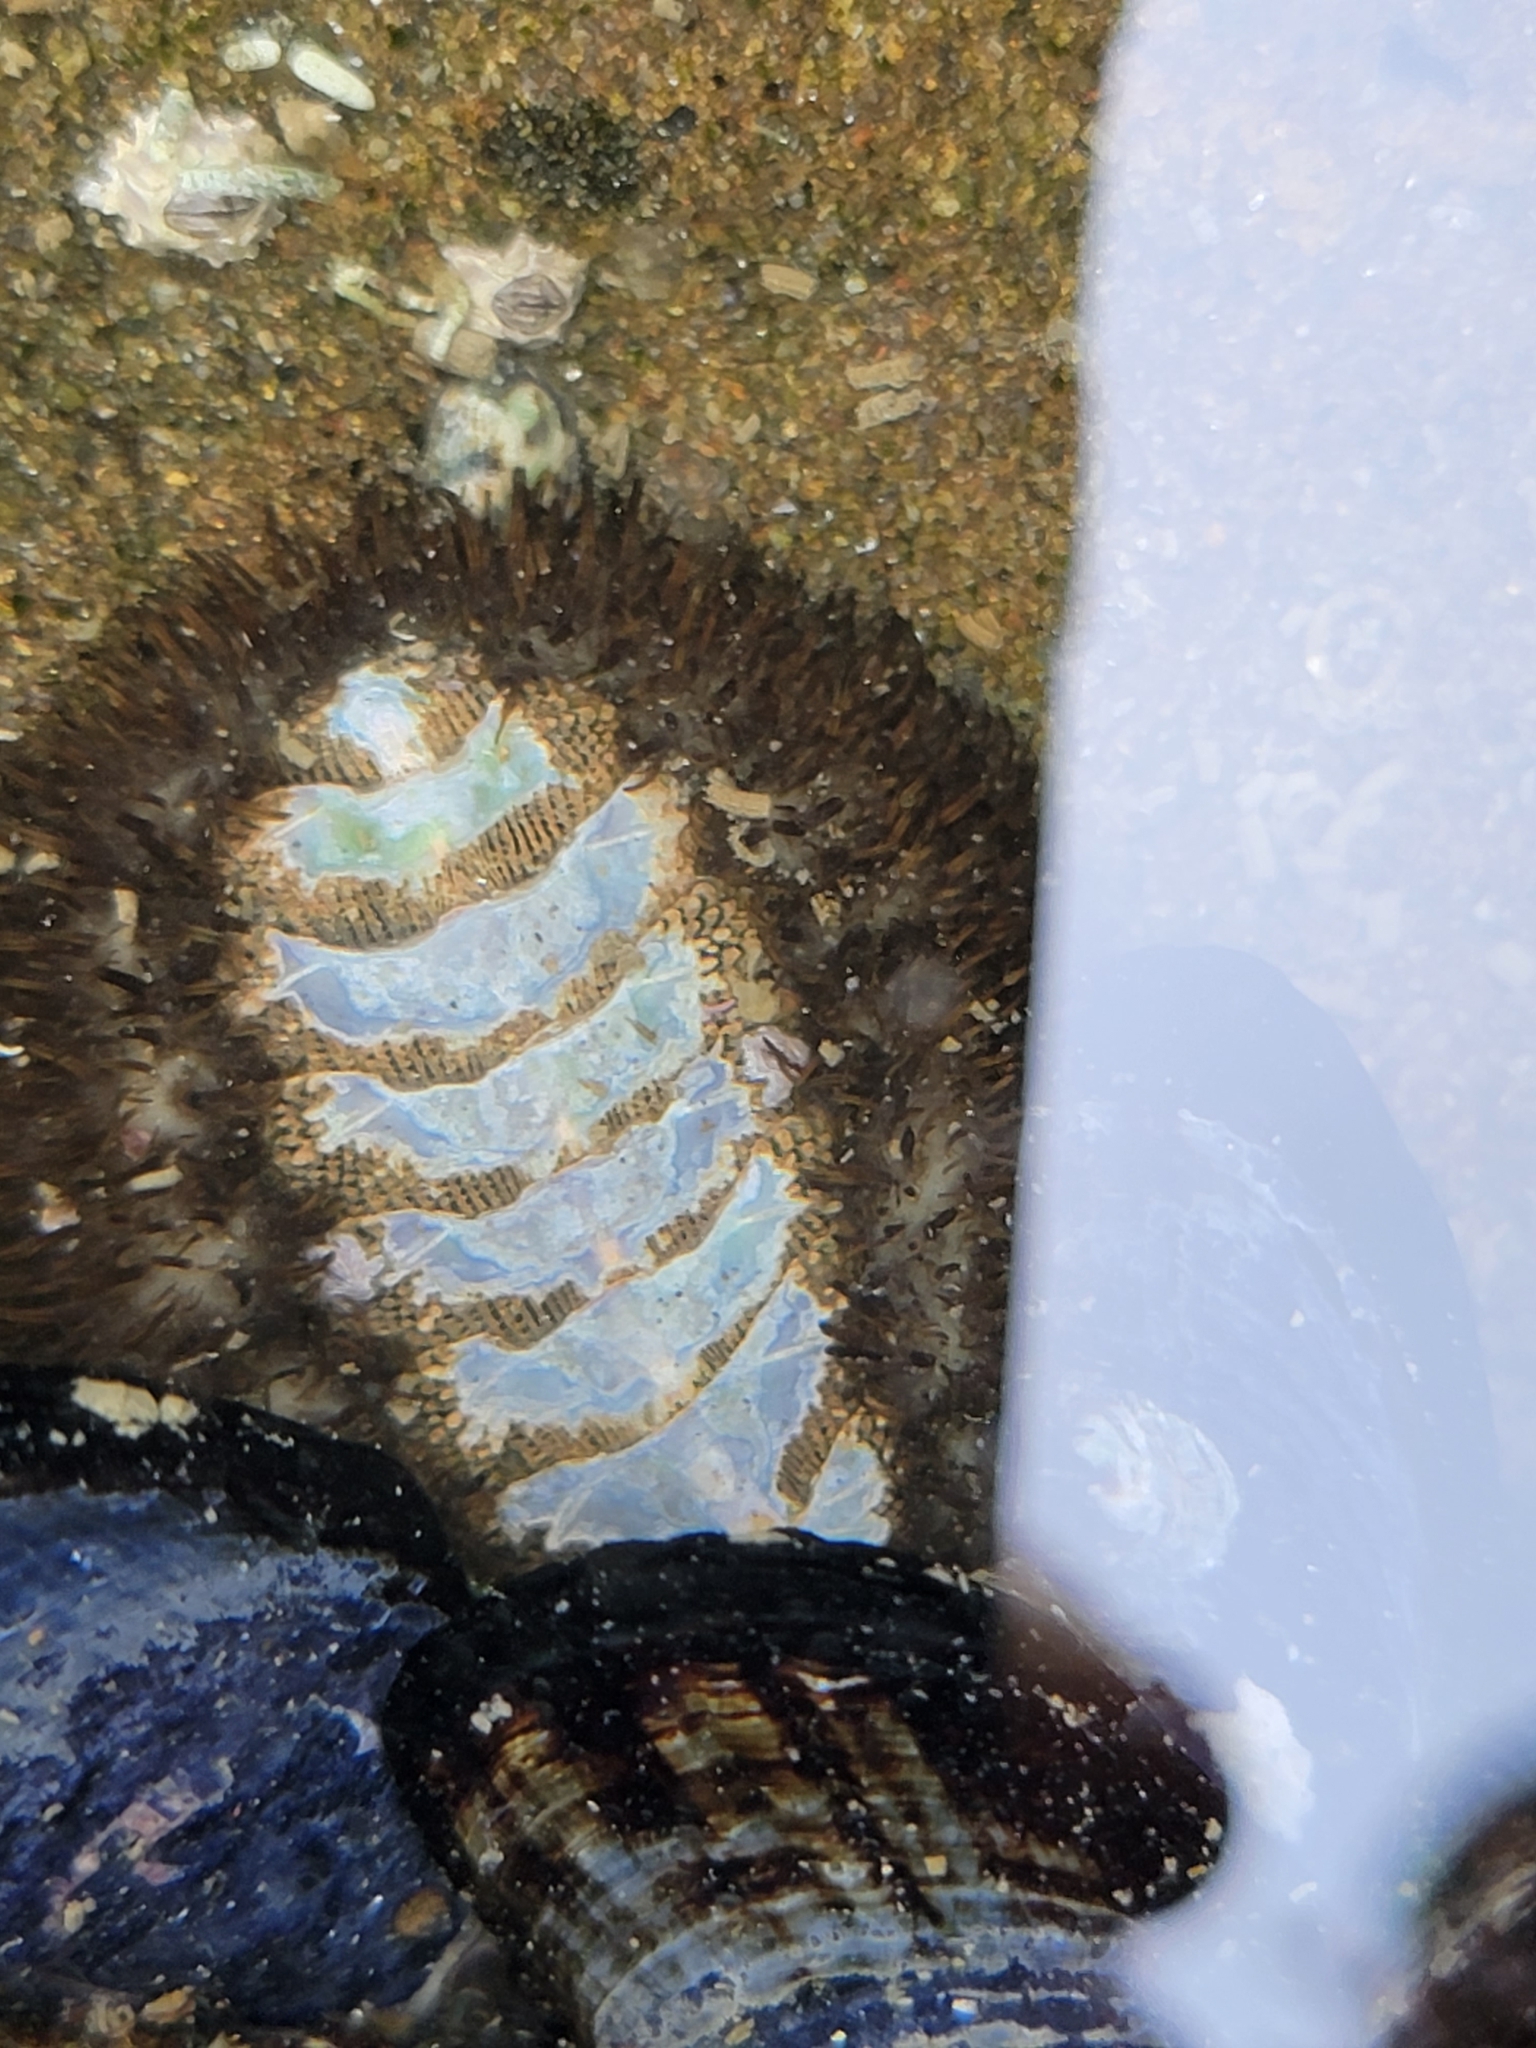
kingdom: Animalia
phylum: Mollusca
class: Polyplacophora
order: Chitonida
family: Mopaliidae
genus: Mopalia
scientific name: Mopalia muscosa
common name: Mossy chiton
